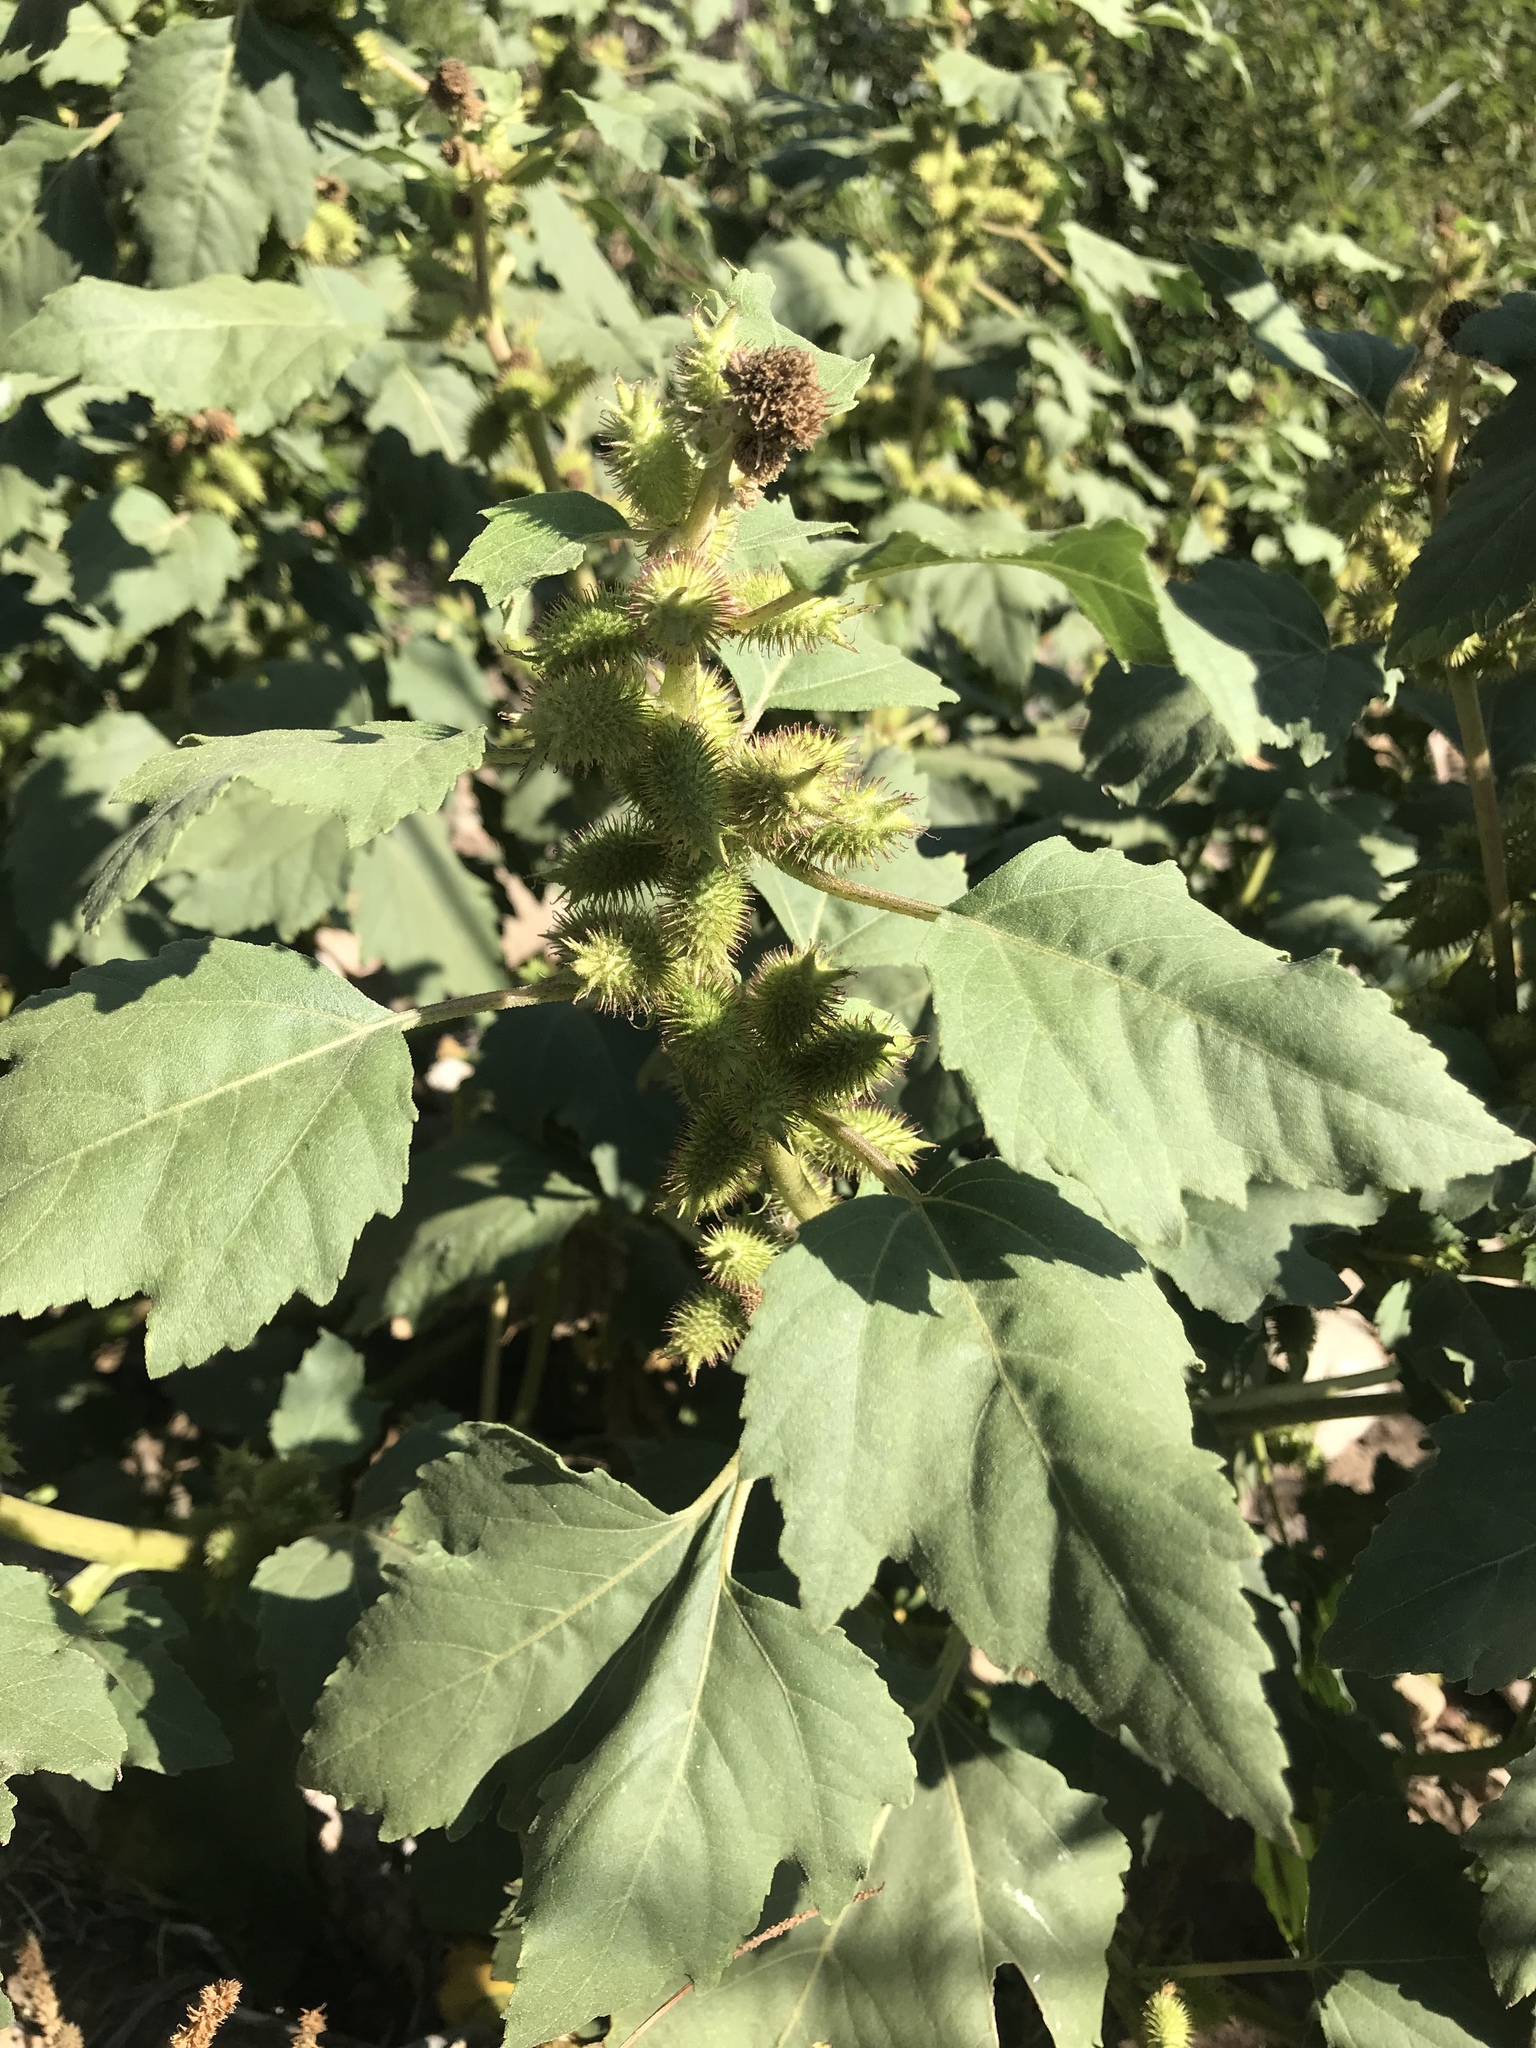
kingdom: Plantae
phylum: Tracheophyta
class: Magnoliopsida
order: Asterales
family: Asteraceae
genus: Xanthium
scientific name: Xanthium strumarium
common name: Rough cocklebur
